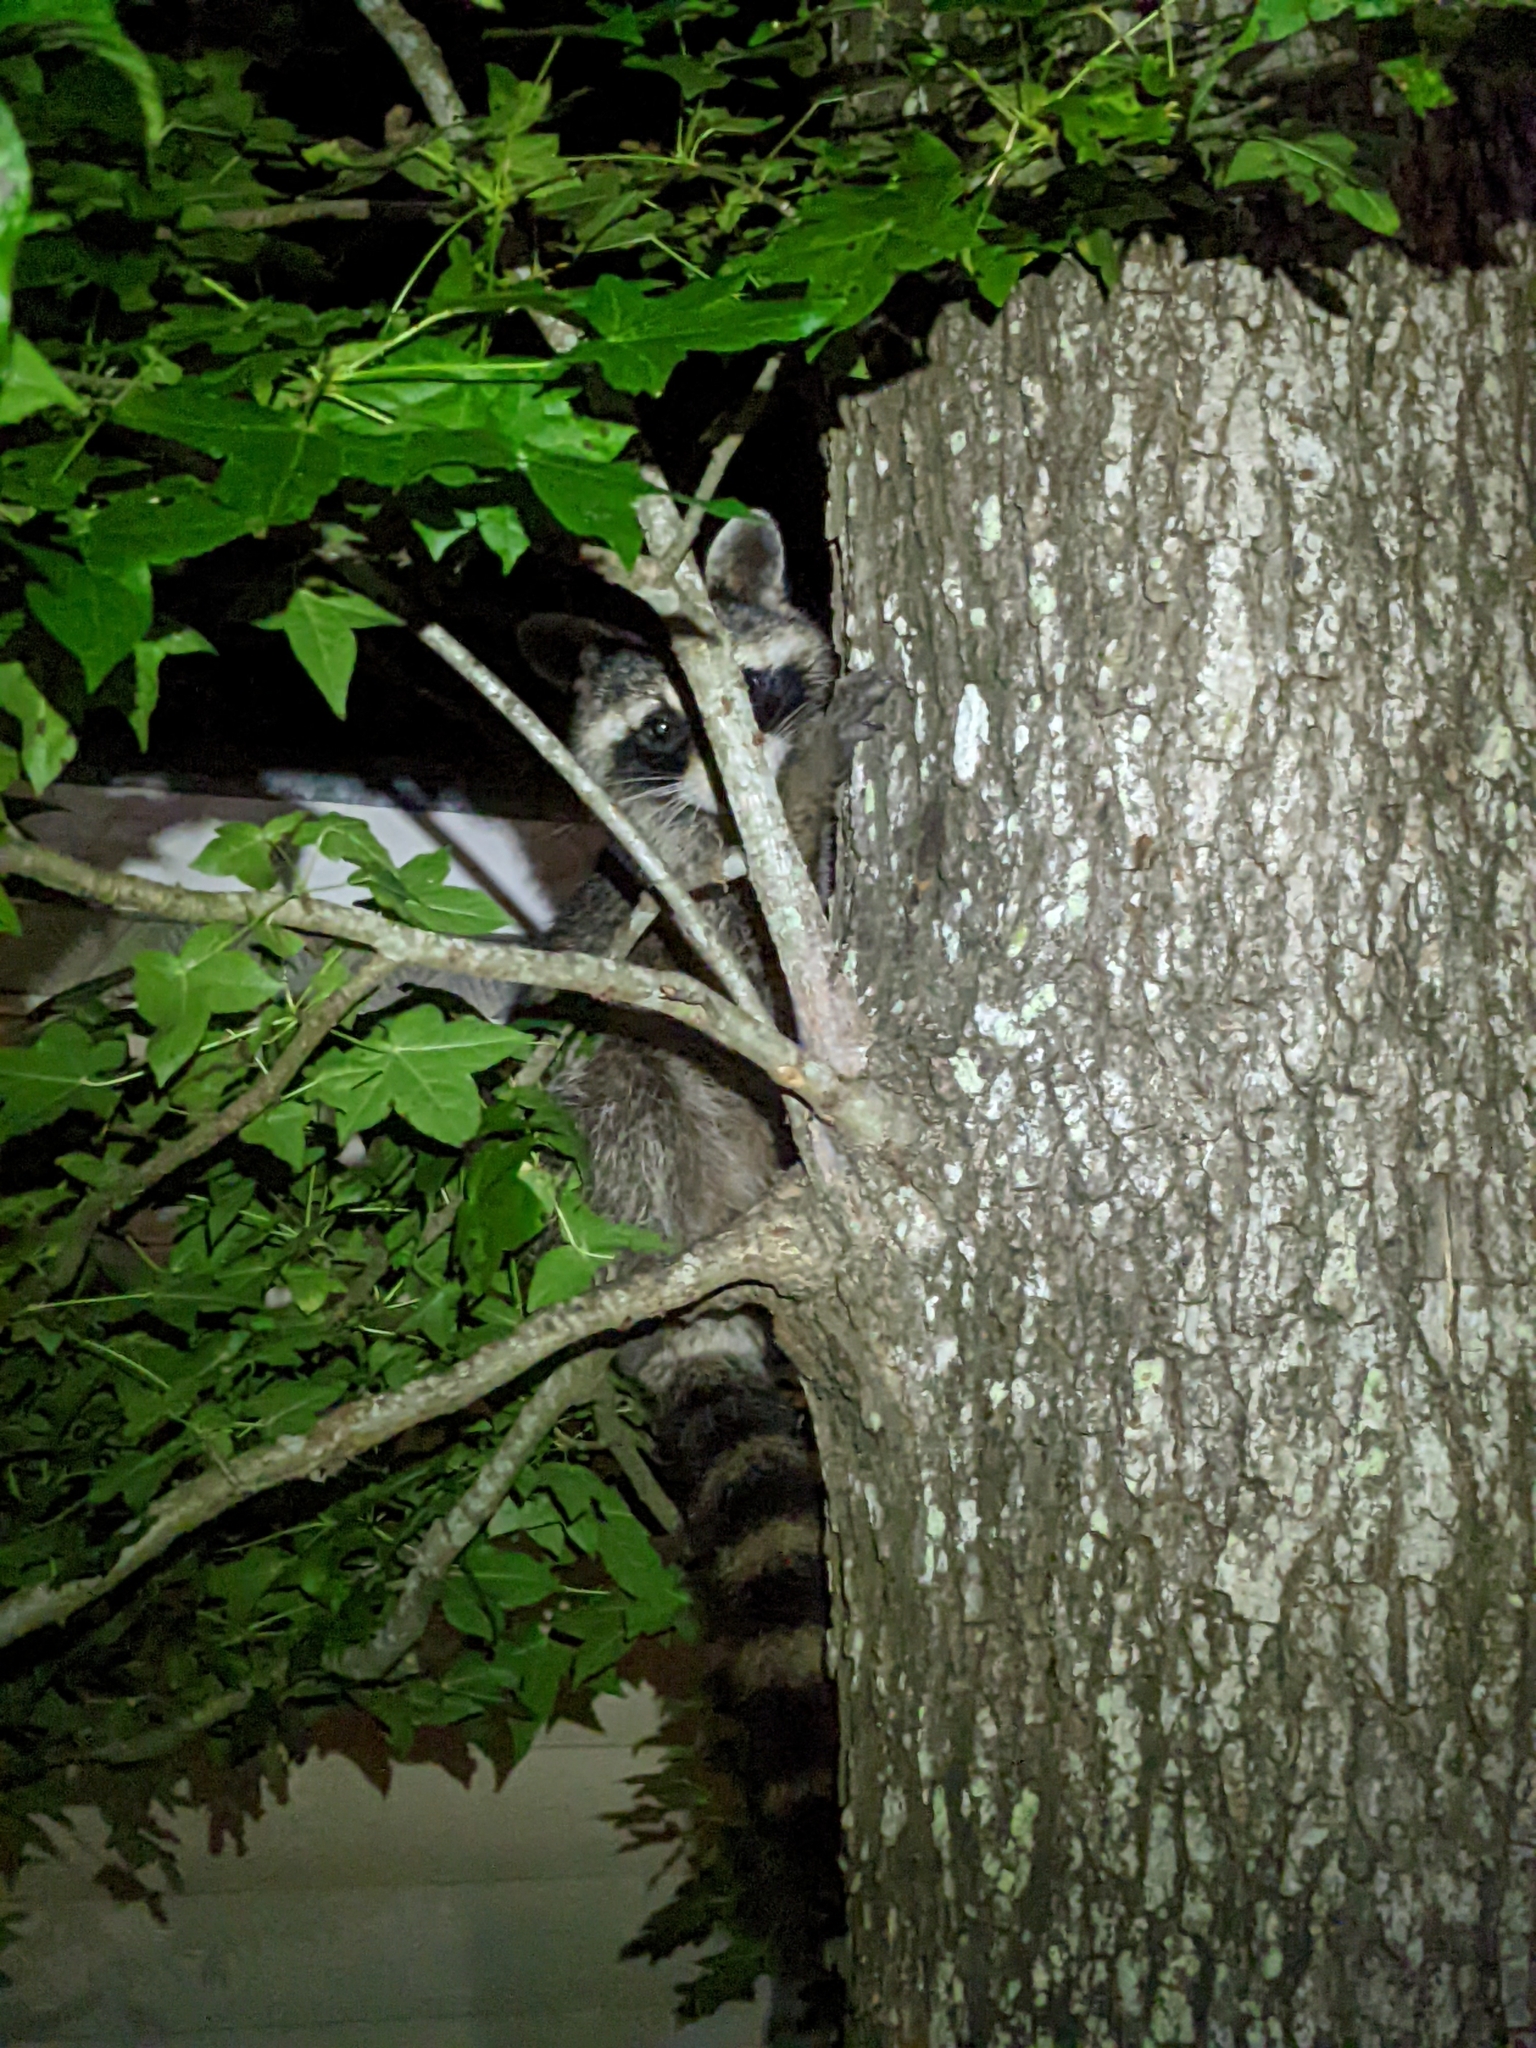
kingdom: Animalia
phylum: Chordata
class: Mammalia
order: Carnivora
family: Procyonidae
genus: Procyon
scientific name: Procyon lotor
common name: Raccoon
